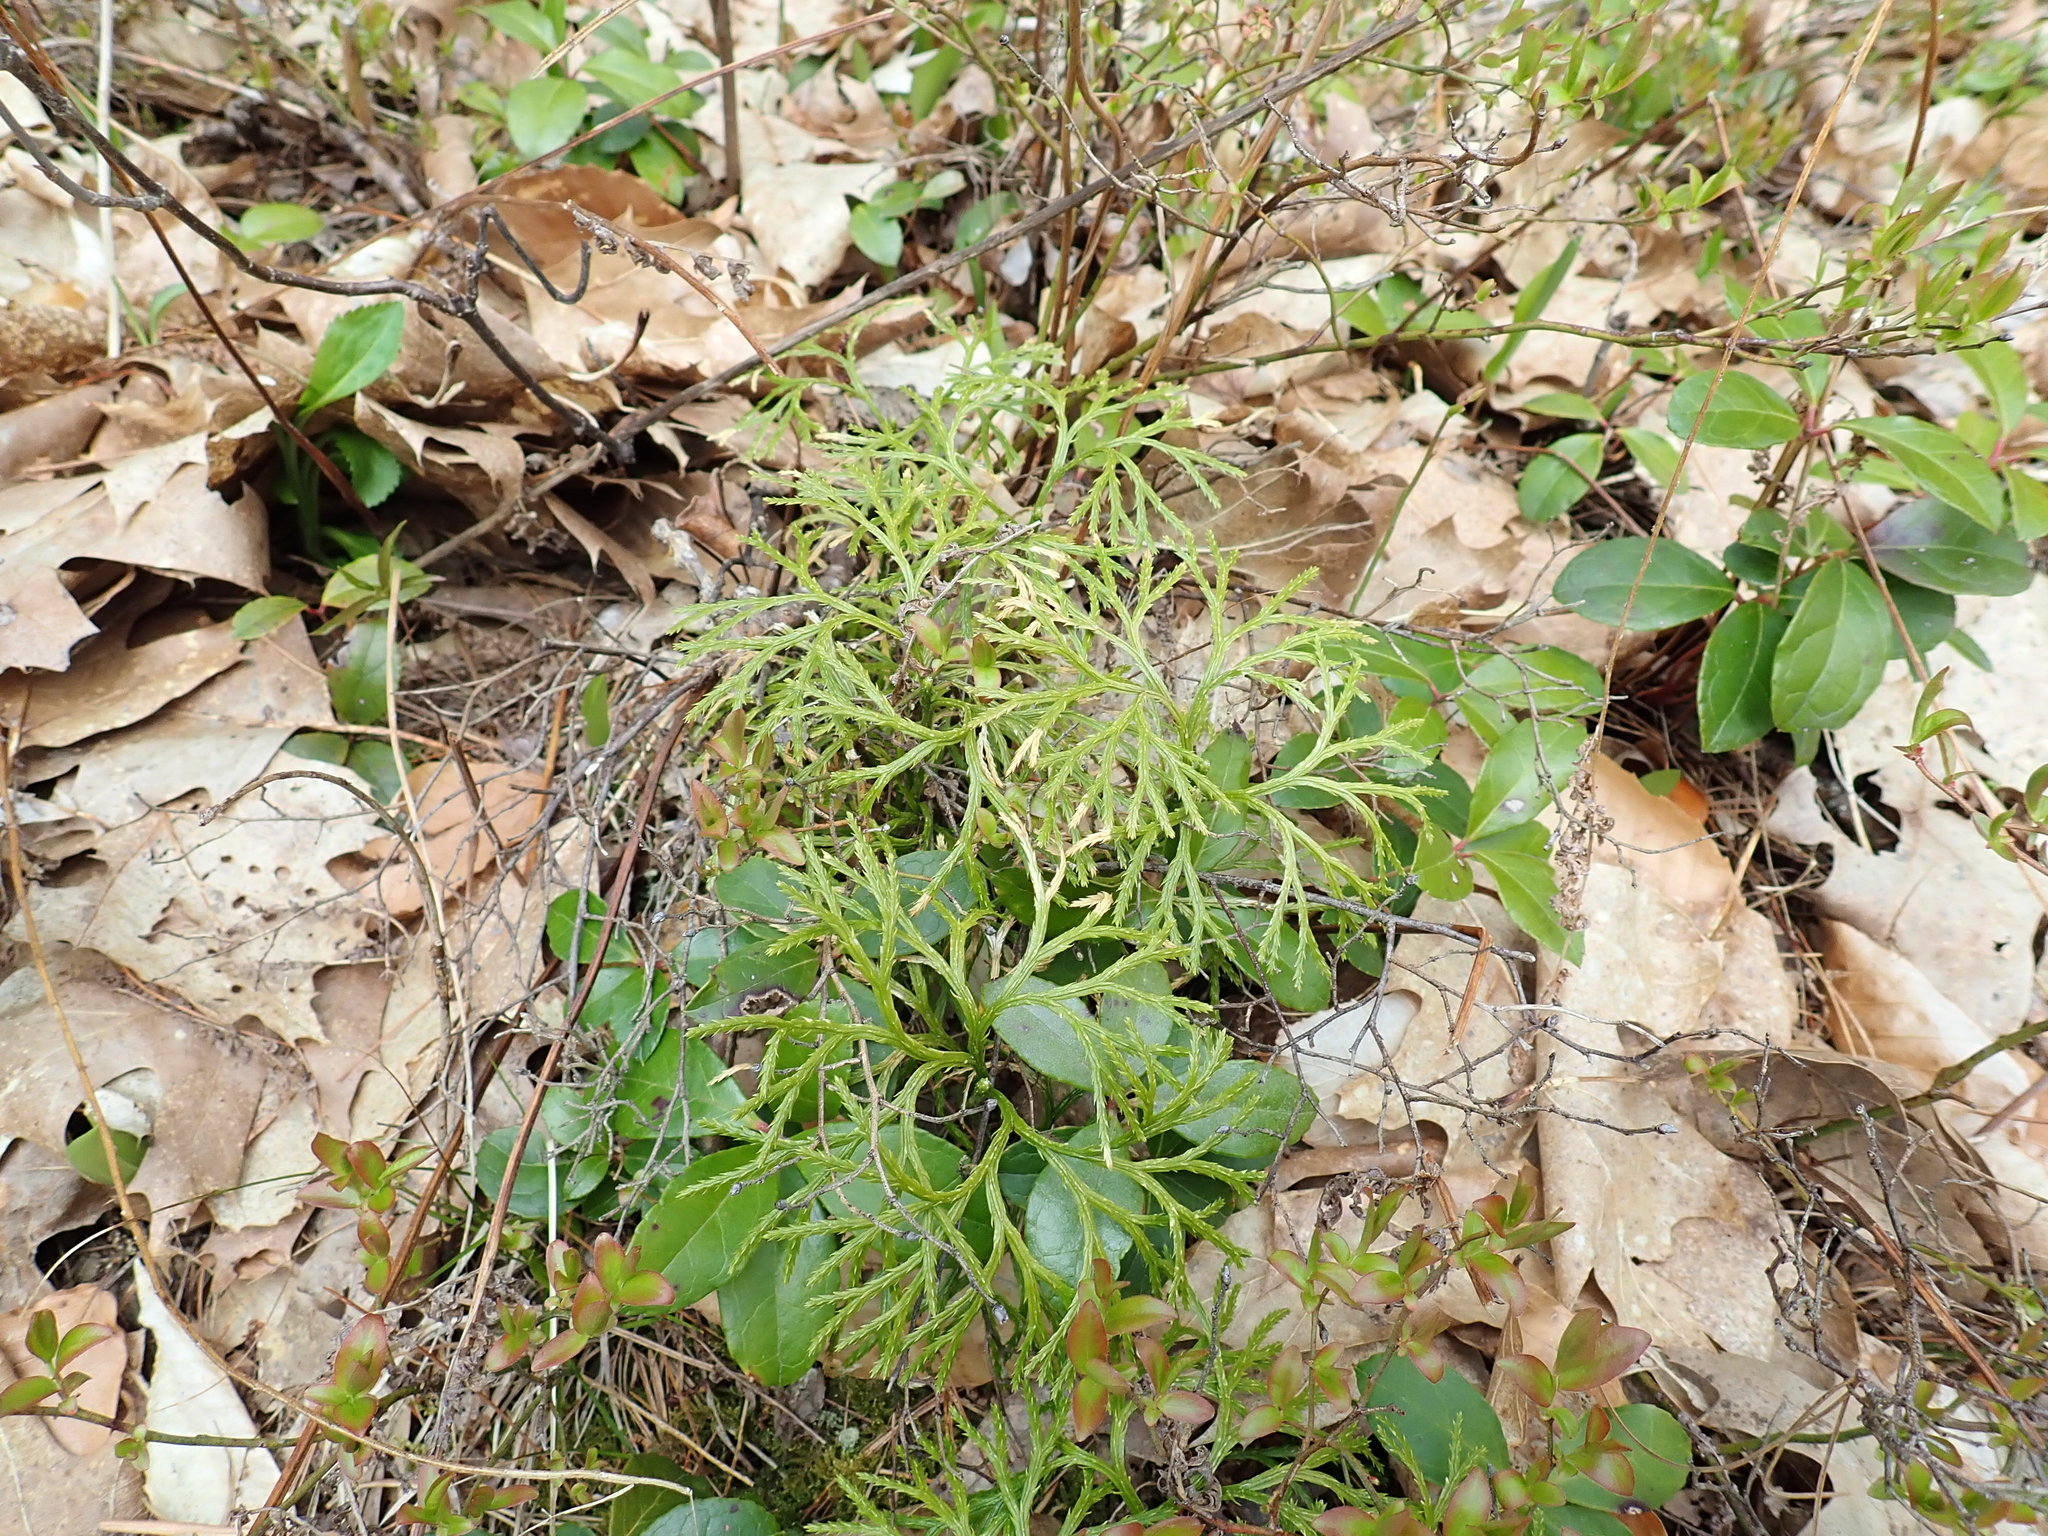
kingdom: Plantae
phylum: Tracheophyta
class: Lycopodiopsida
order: Lycopodiales
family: Lycopodiaceae
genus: Diphasiastrum
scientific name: Diphasiastrum digitatum
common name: Southern running-pine
